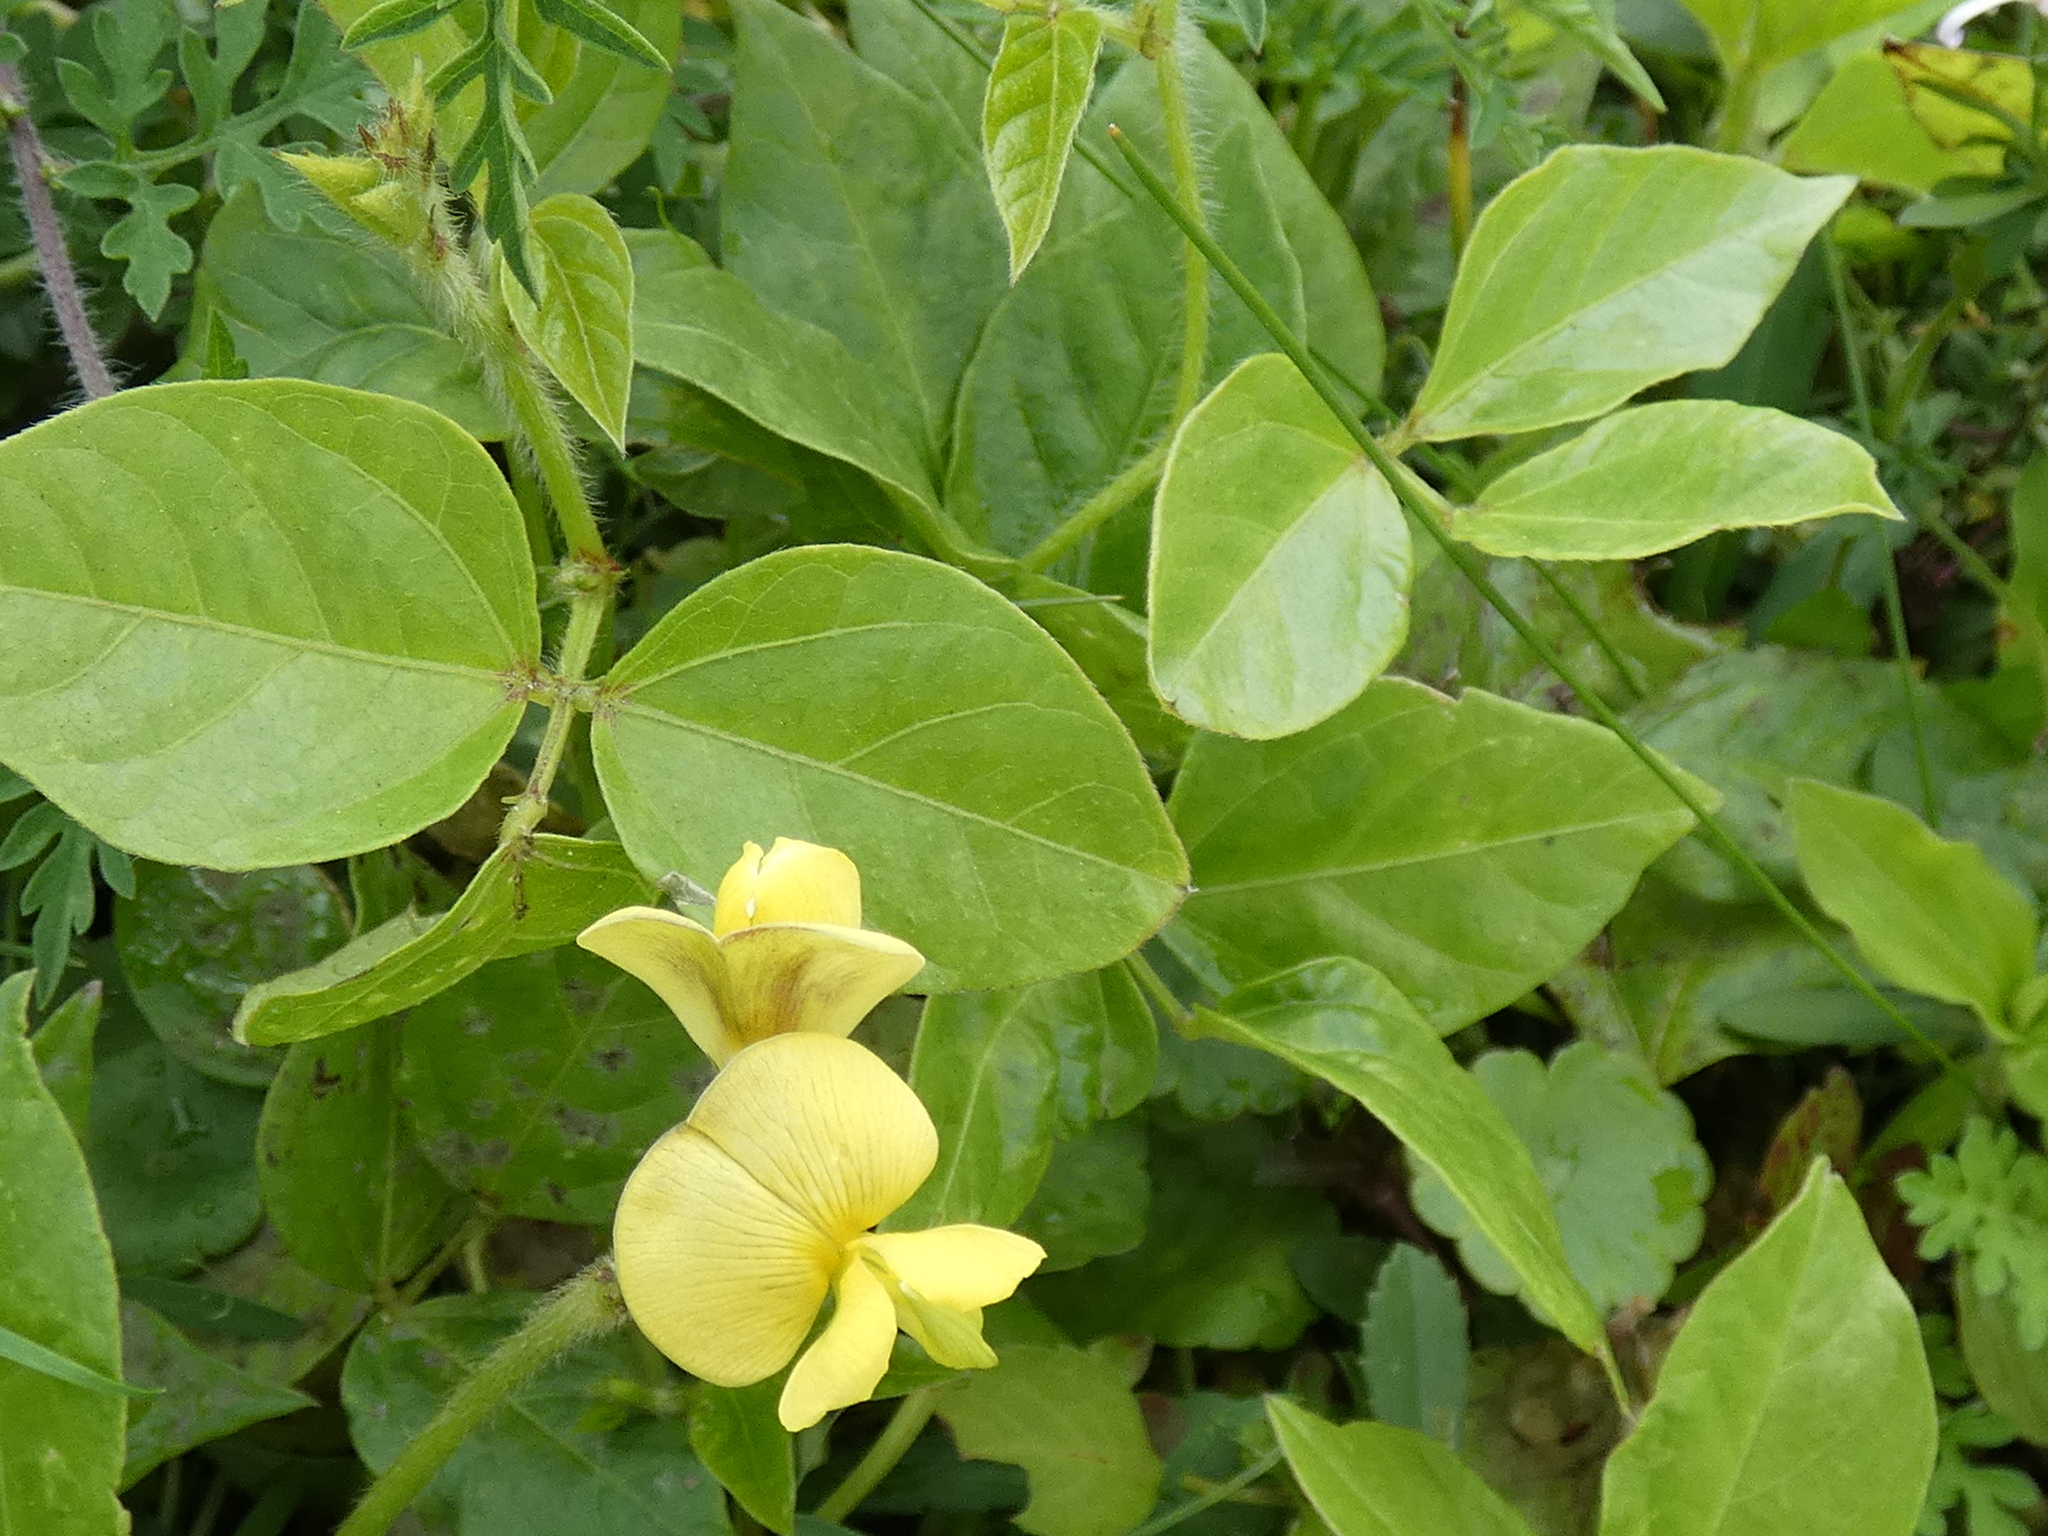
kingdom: Plantae
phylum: Tracheophyta
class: Magnoliopsida
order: Fabales
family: Fabaceae
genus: Vigna
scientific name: Vigna luteola
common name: Hairypod cowpea
